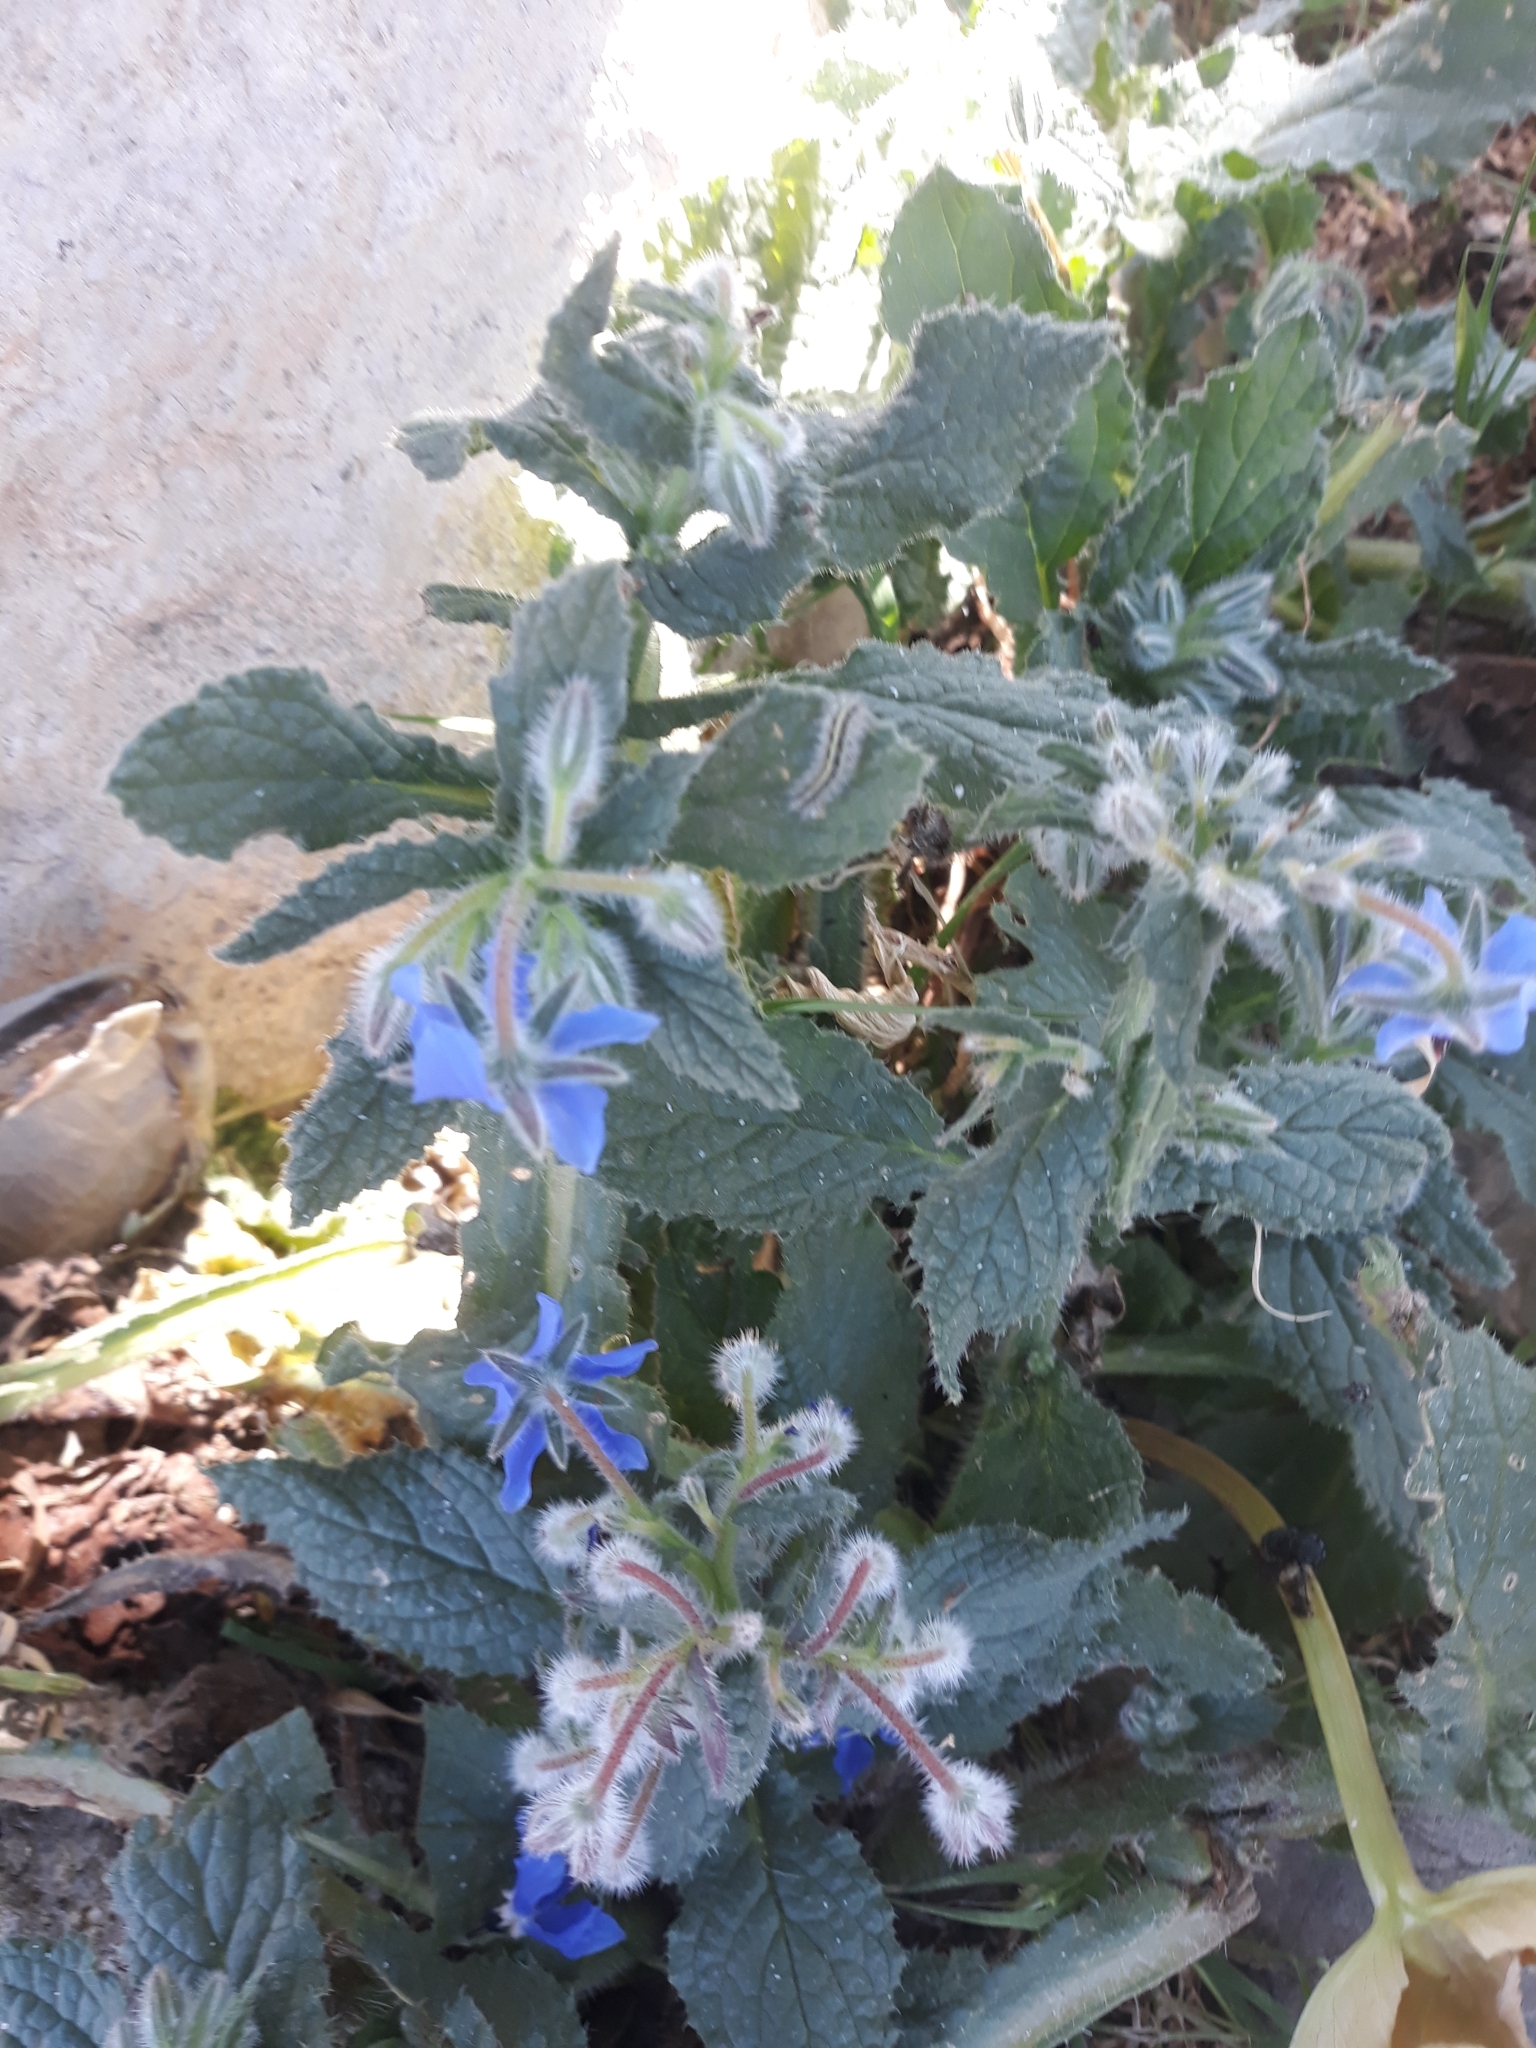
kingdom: Plantae
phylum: Tracheophyta
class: Magnoliopsida
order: Boraginales
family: Boraginaceae
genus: Borago
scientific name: Borago officinalis
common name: Borage
